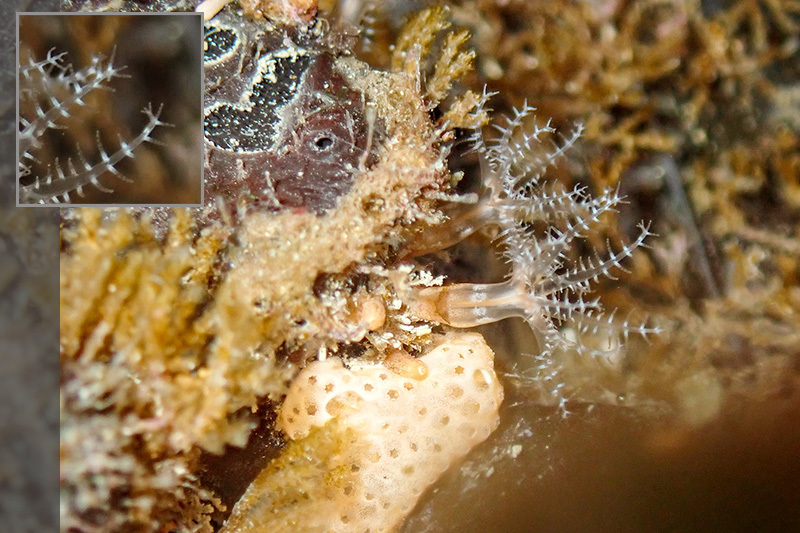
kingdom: Animalia
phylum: Cnidaria
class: Anthozoa
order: Malacalcyonacea
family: Clavulariidae
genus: Clavularia
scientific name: Clavularia crassa
